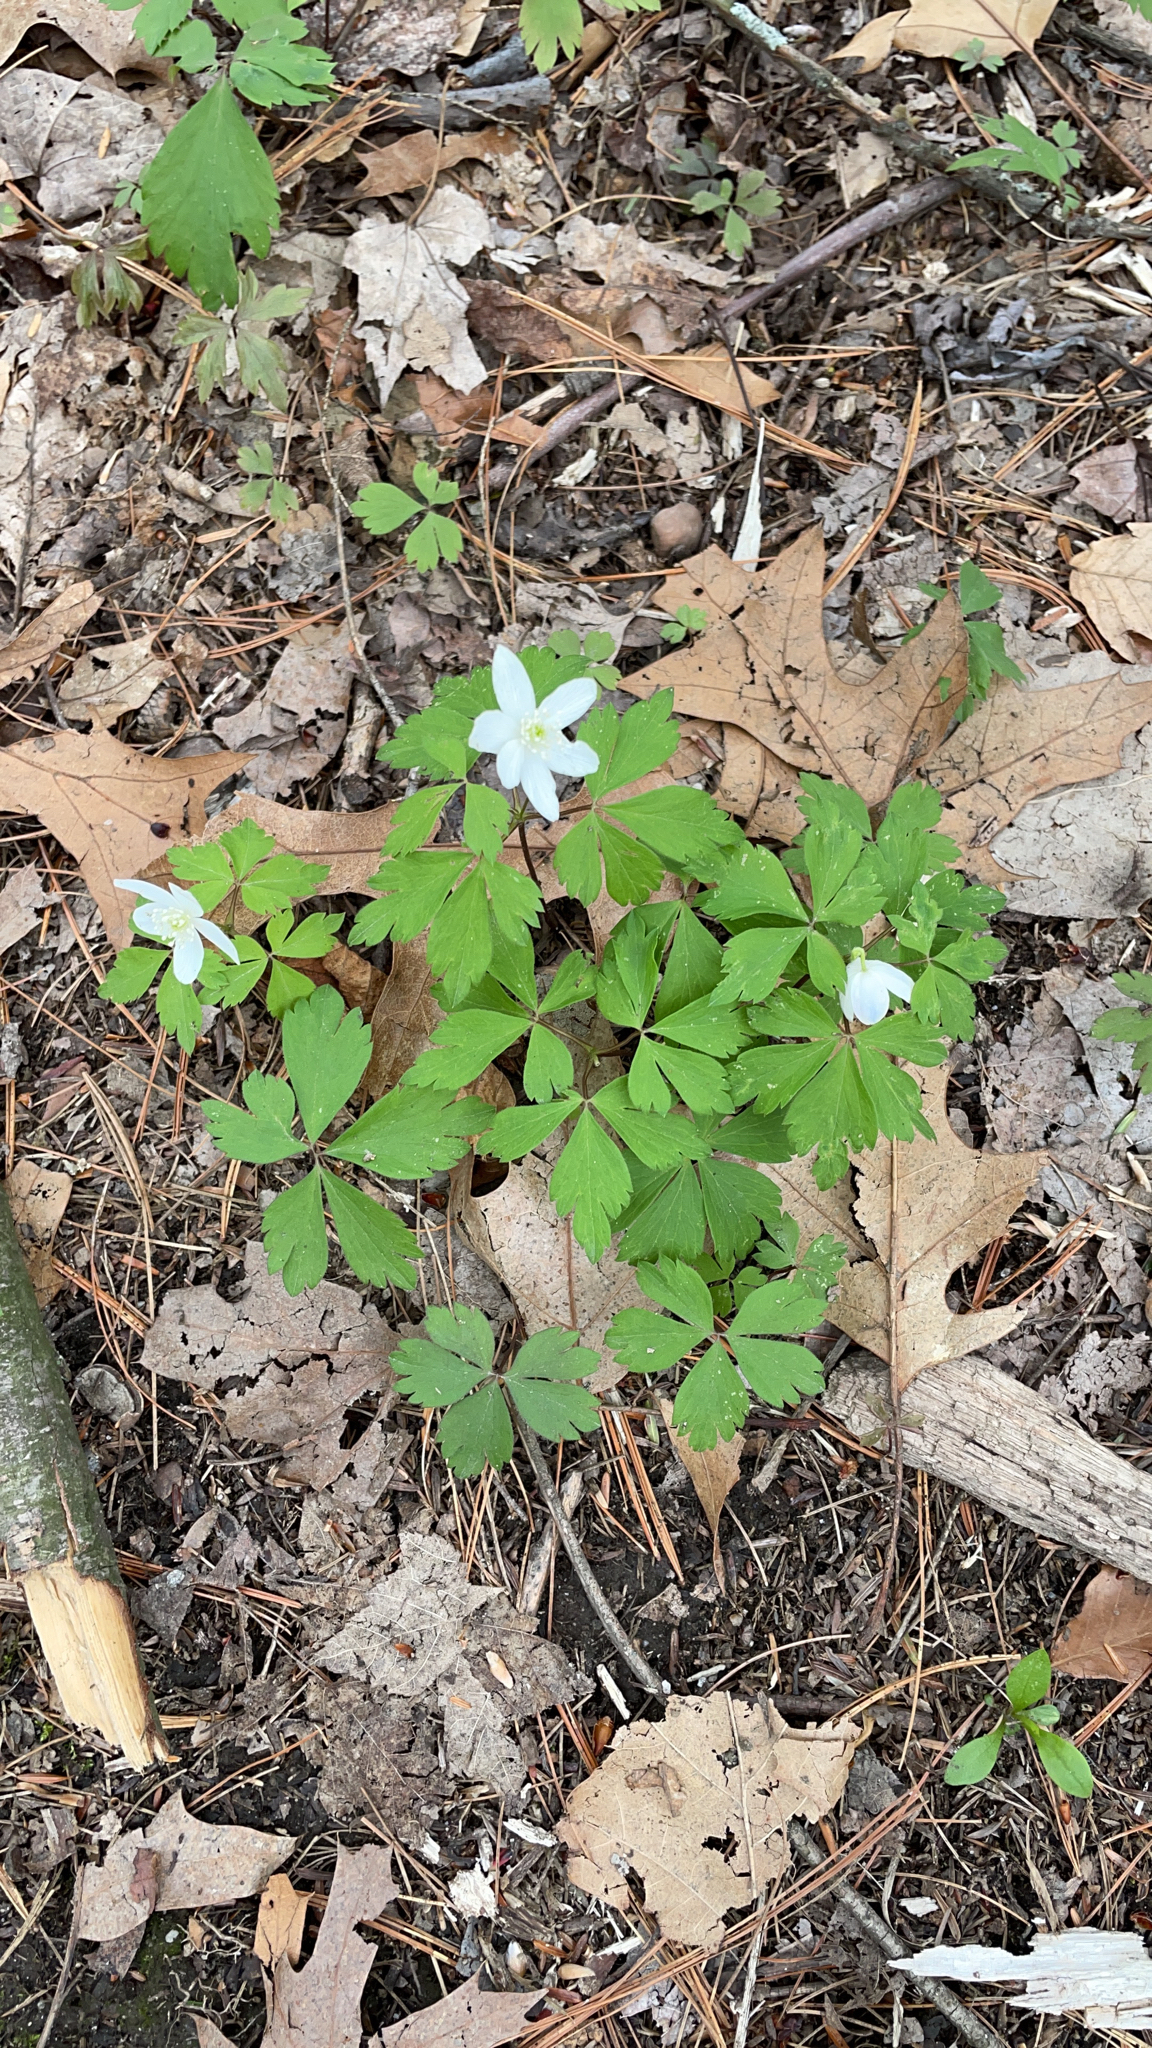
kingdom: Plantae
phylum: Tracheophyta
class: Magnoliopsida
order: Ranunculales
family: Ranunculaceae
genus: Anemone
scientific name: Anemone quinquefolia
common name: Wood anemone
